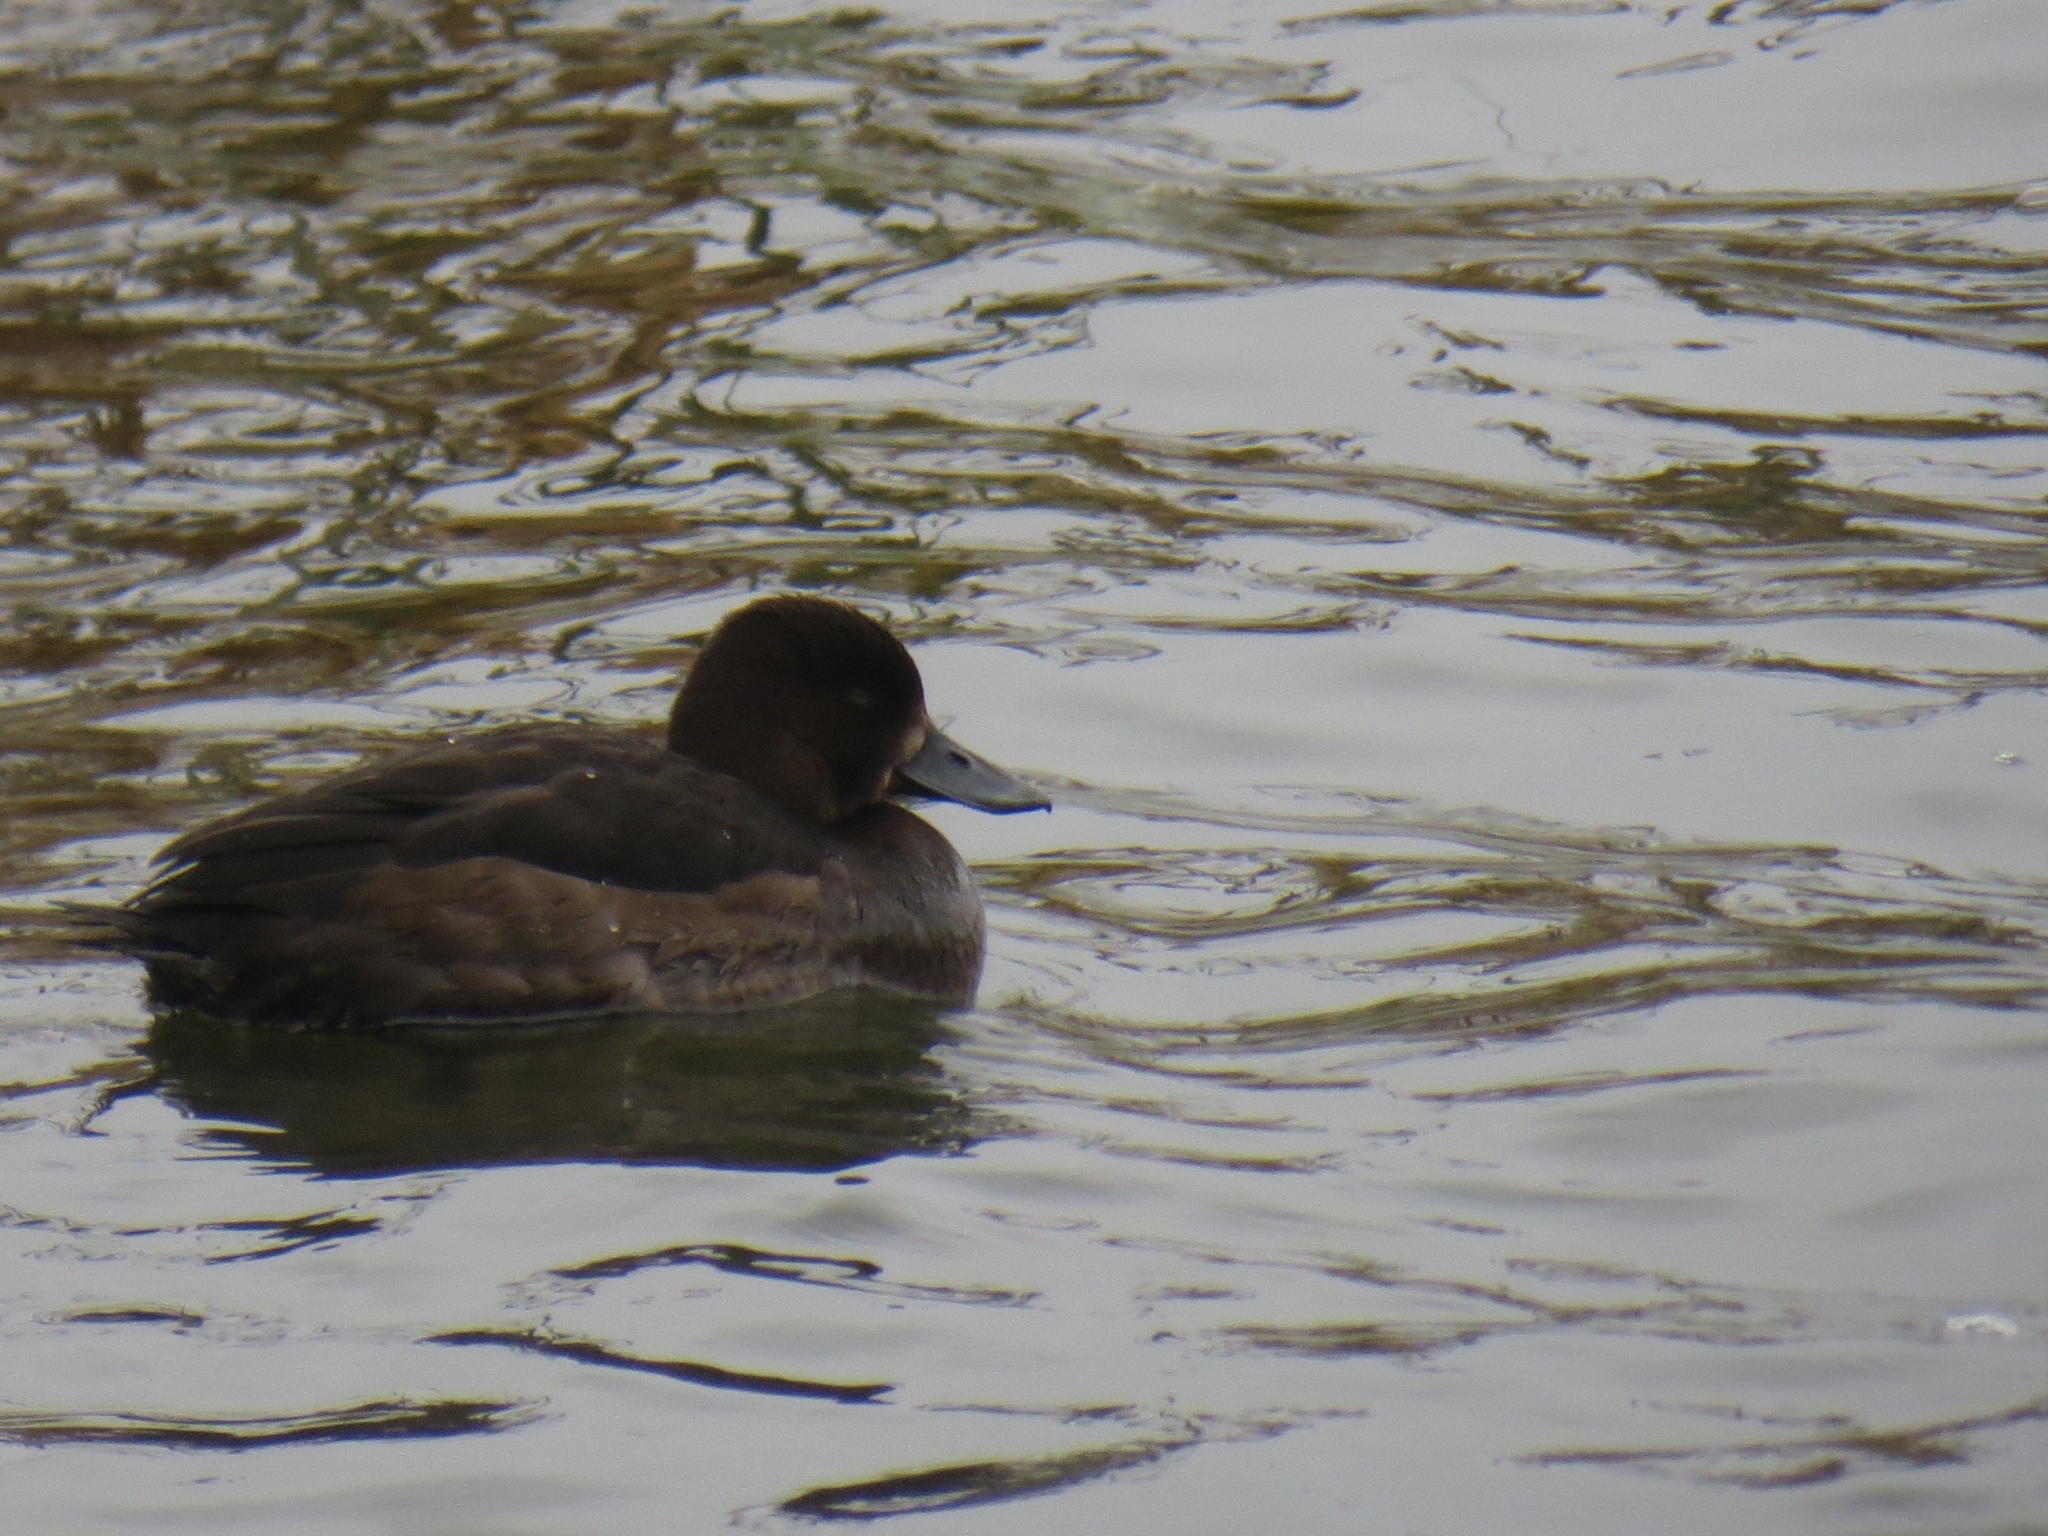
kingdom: Animalia
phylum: Chordata
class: Aves
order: Anseriformes
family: Anatidae
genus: Aythya
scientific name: Aythya fuligula
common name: Tufted duck
